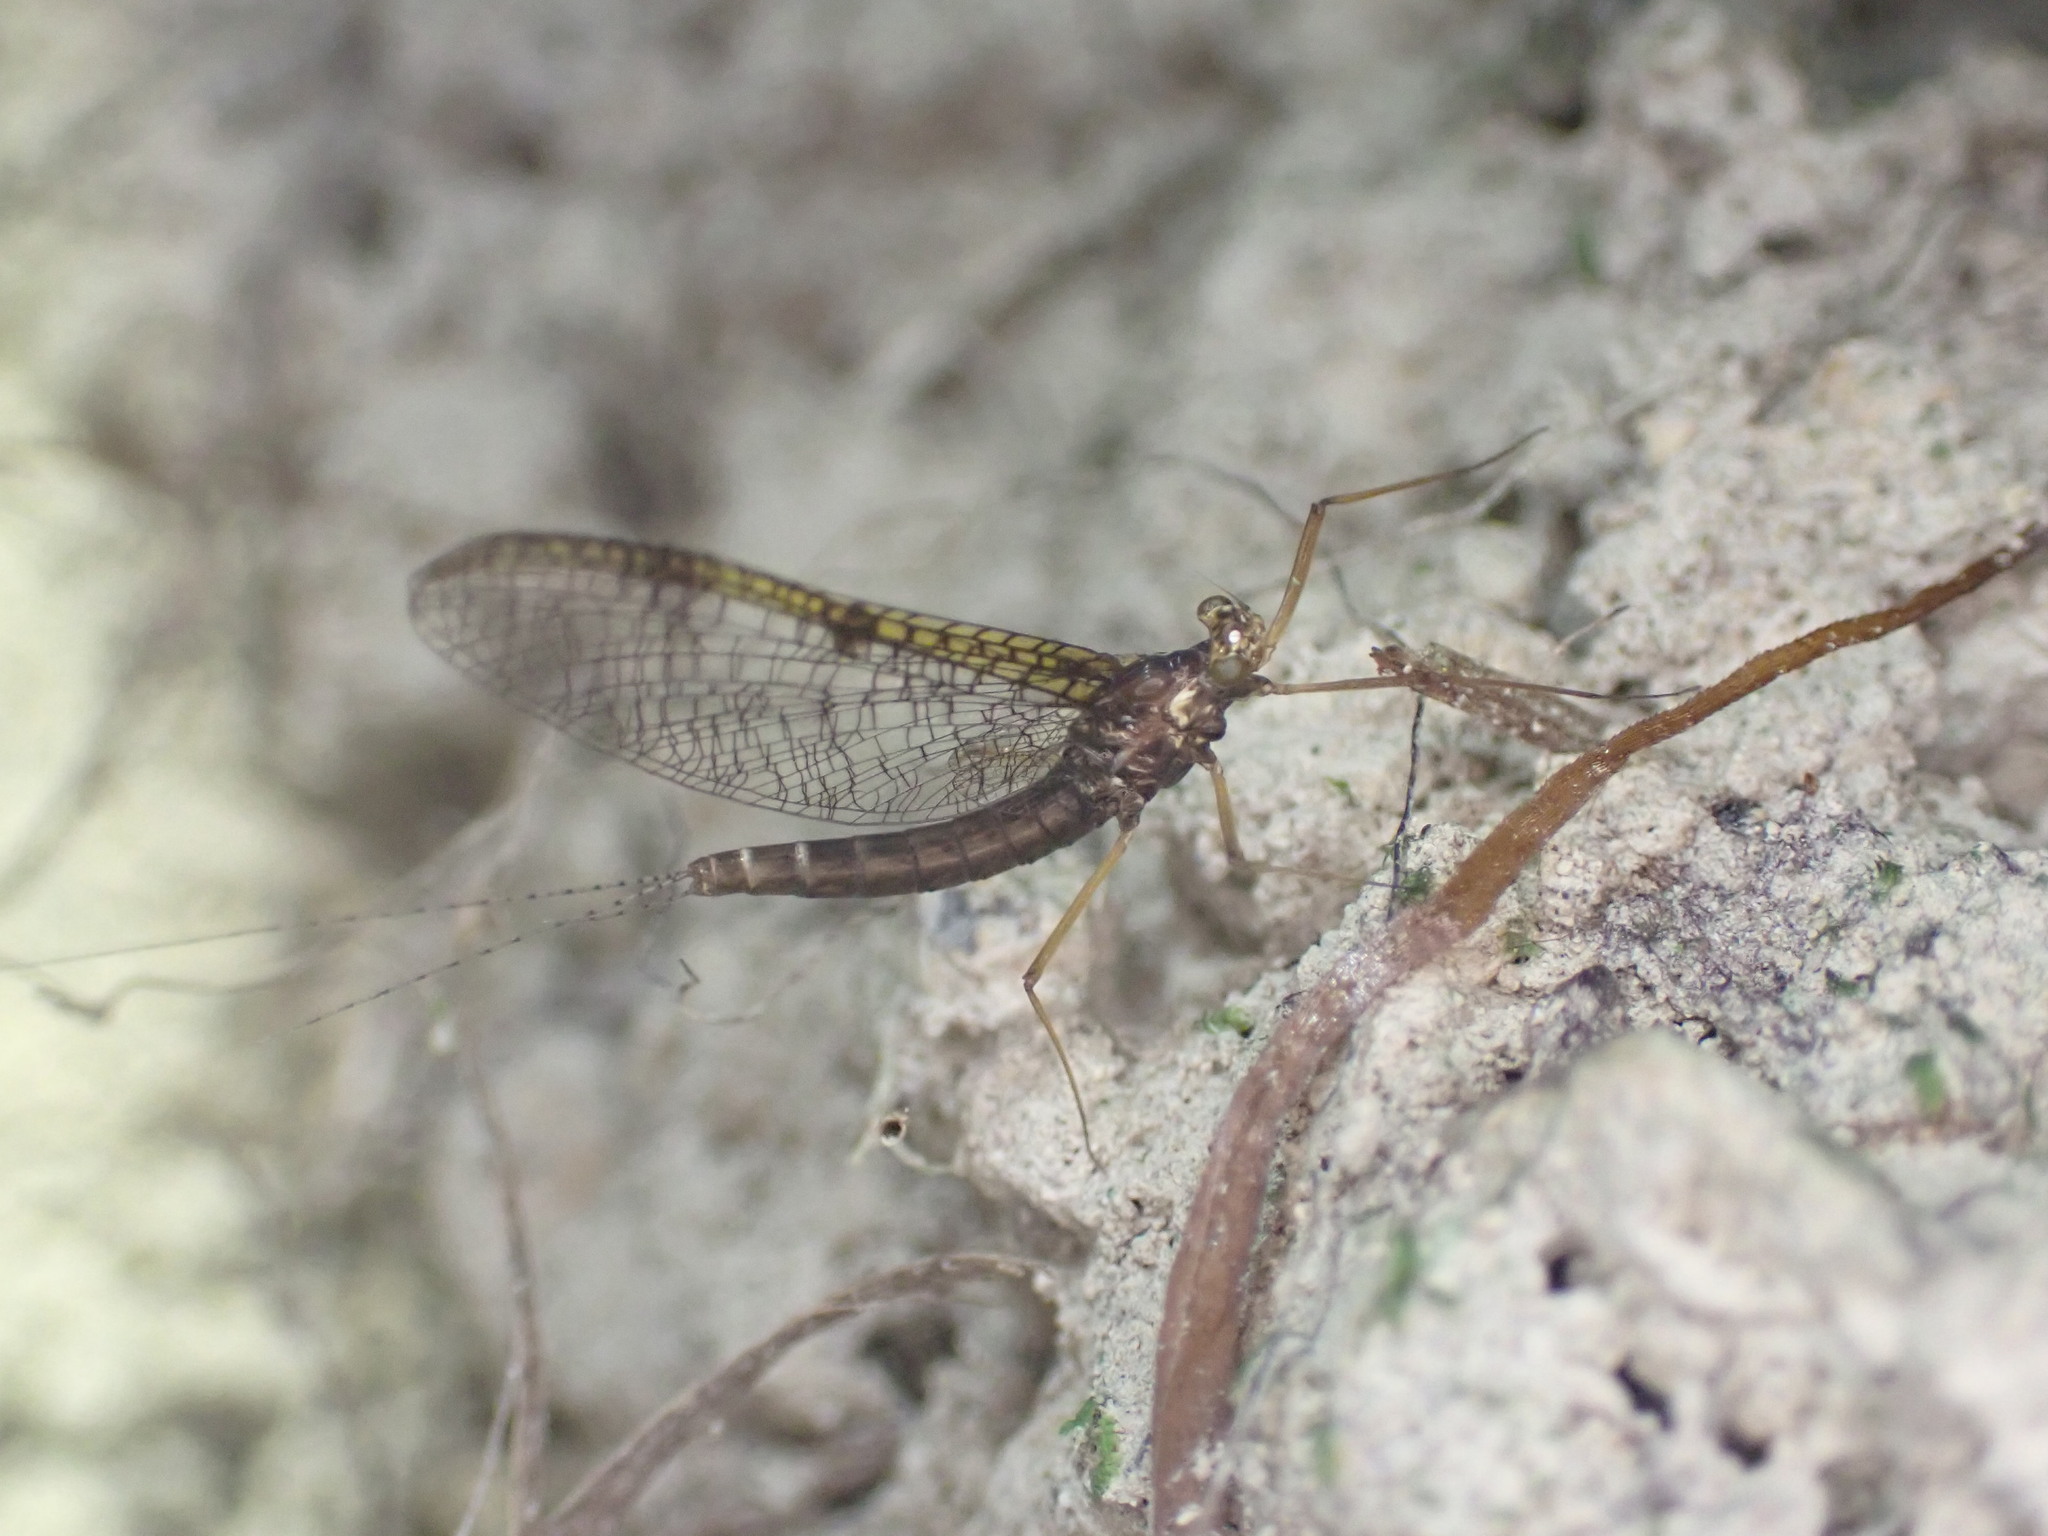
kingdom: Animalia
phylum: Arthropoda
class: Insecta
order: Ephemeroptera
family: Leptophlebiidae
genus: Zephlebia
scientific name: Zephlebia versicolor
